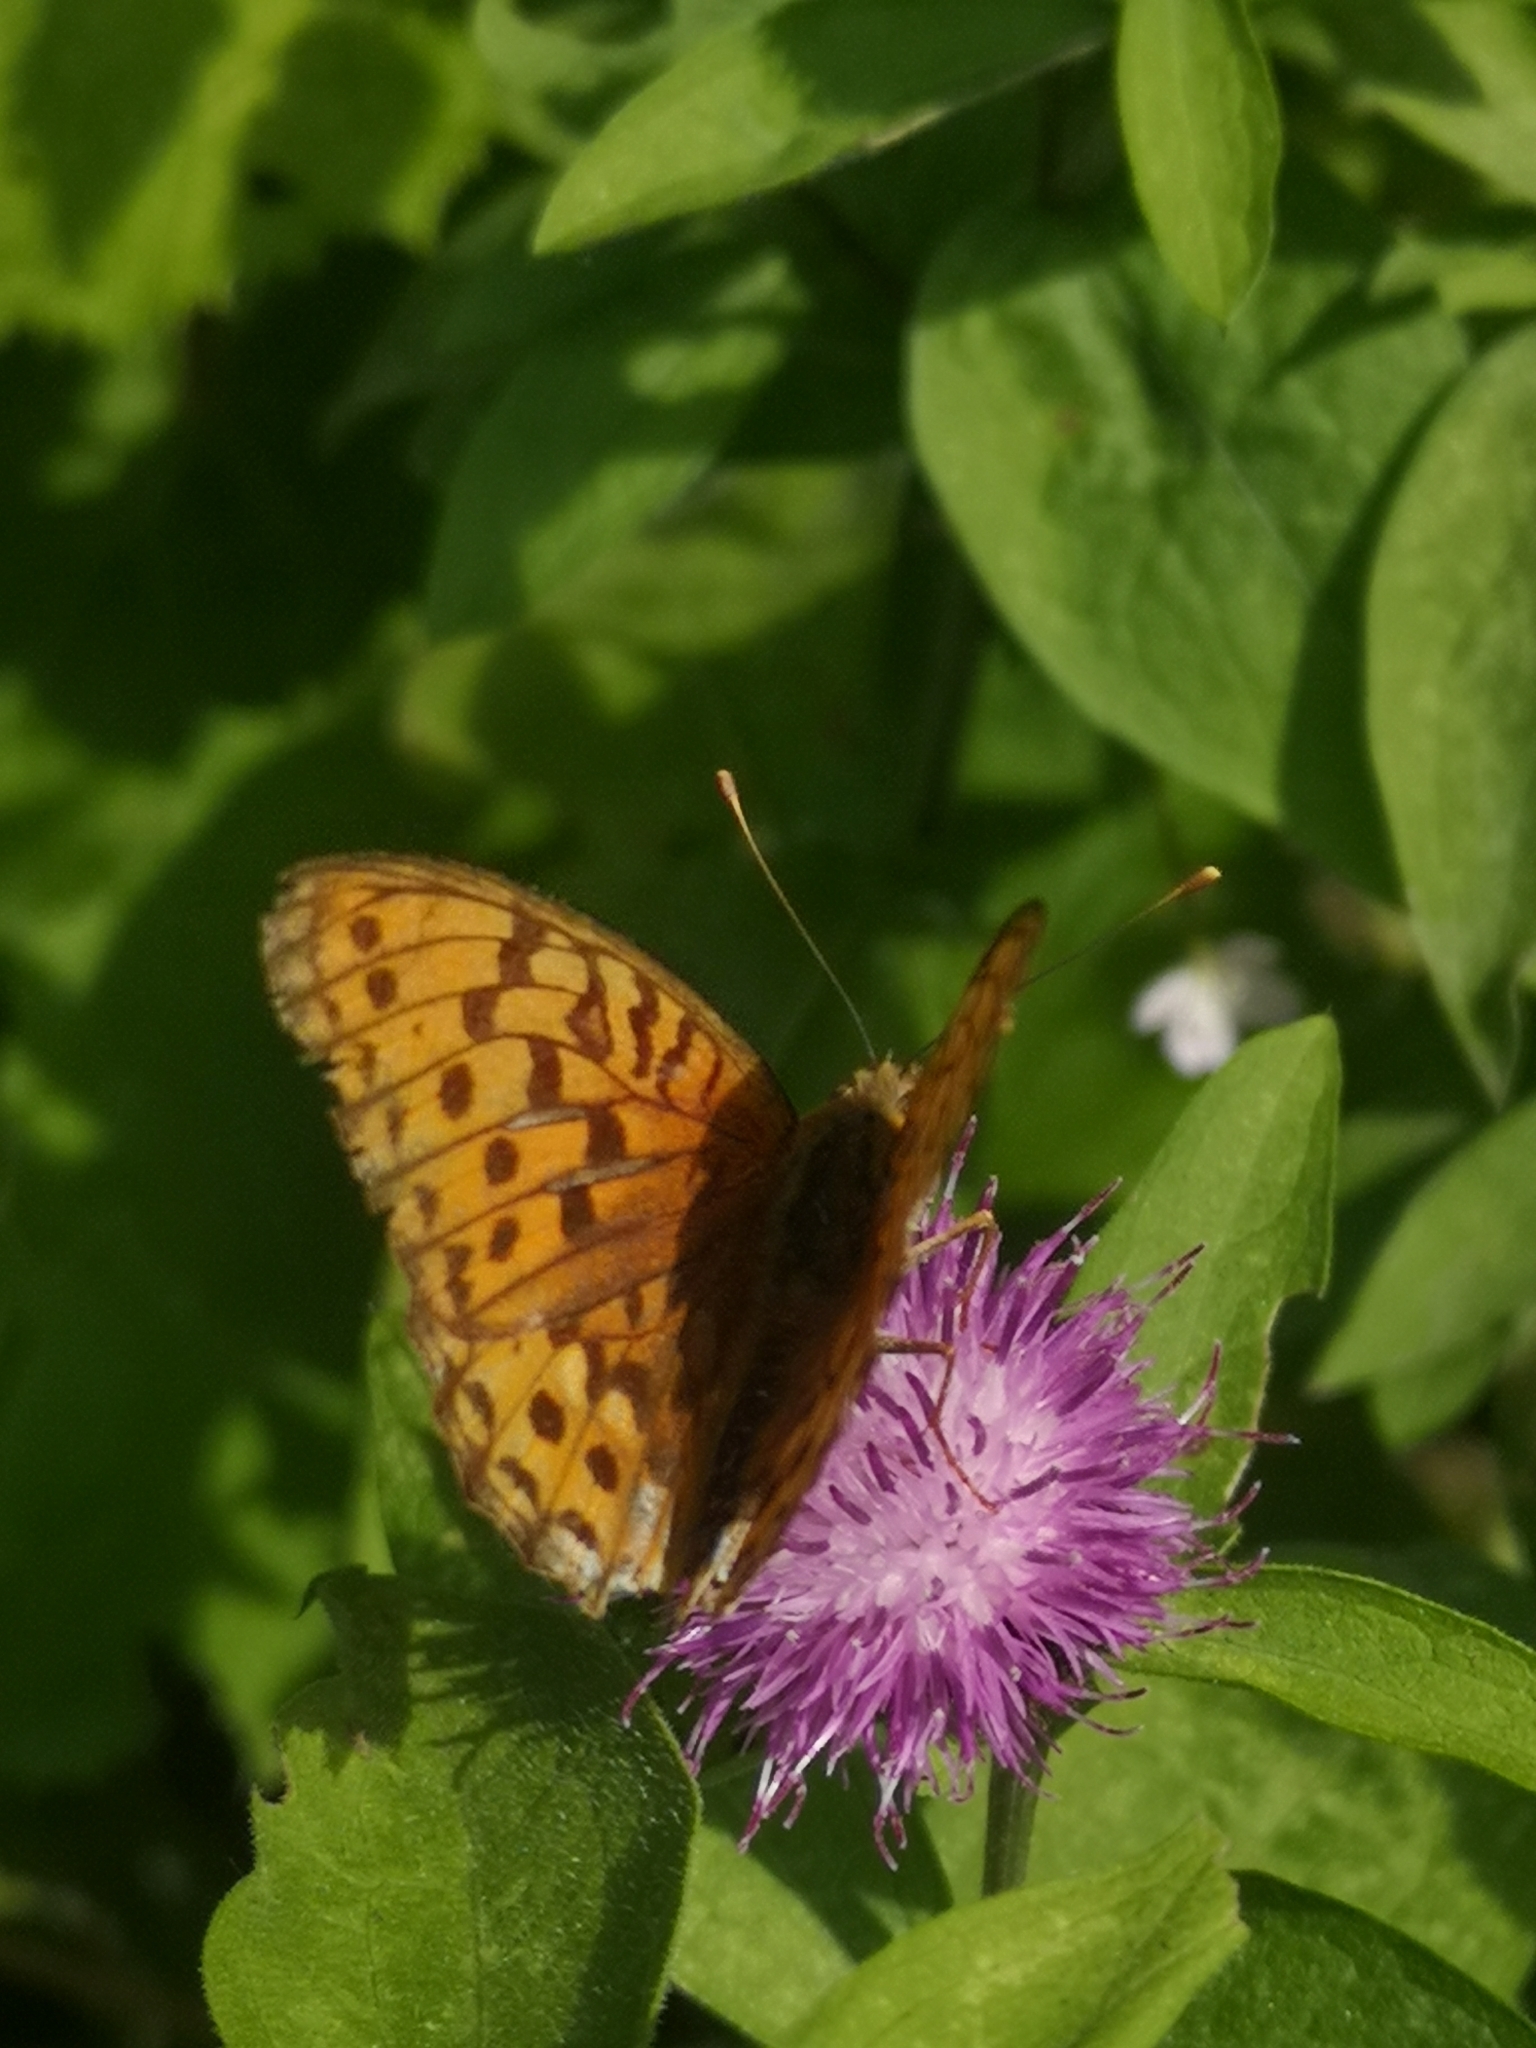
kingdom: Animalia
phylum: Arthropoda
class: Insecta
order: Lepidoptera
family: Nymphalidae
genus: Fabriciana
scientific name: Fabriciana adippe
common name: High brown fritillary
